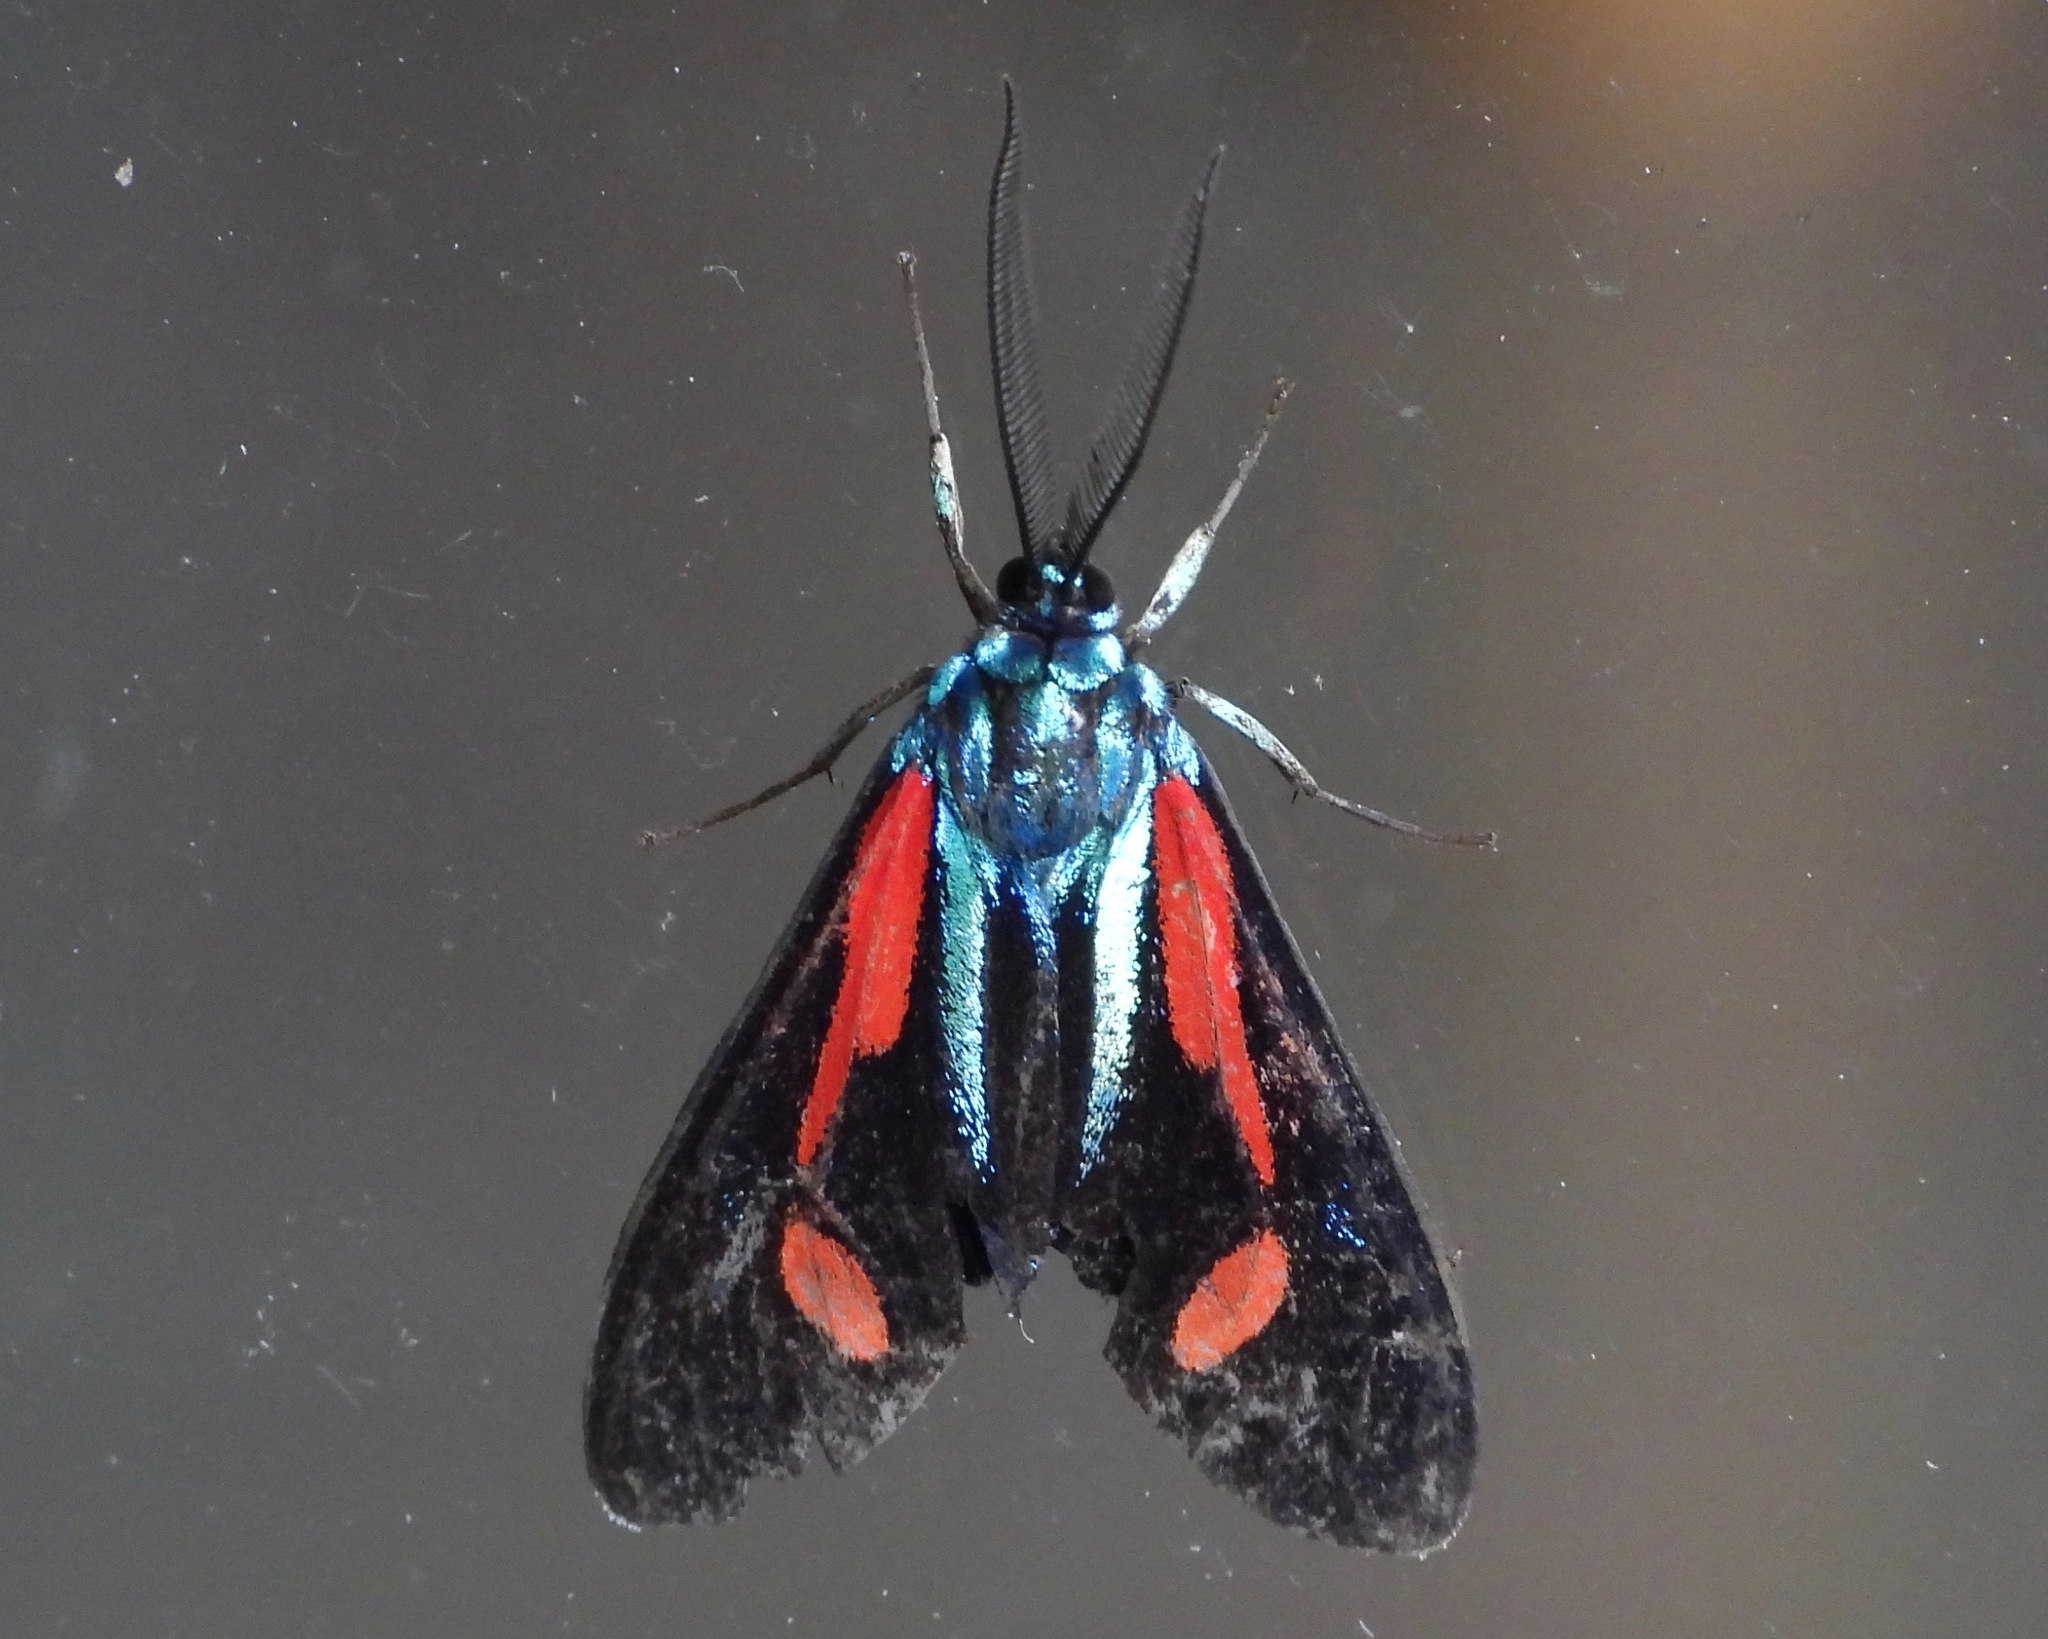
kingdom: Animalia
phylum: Arthropoda
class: Insecta
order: Lepidoptera
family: Erebidae
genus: Cyanopepla
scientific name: Cyanopepla bella
